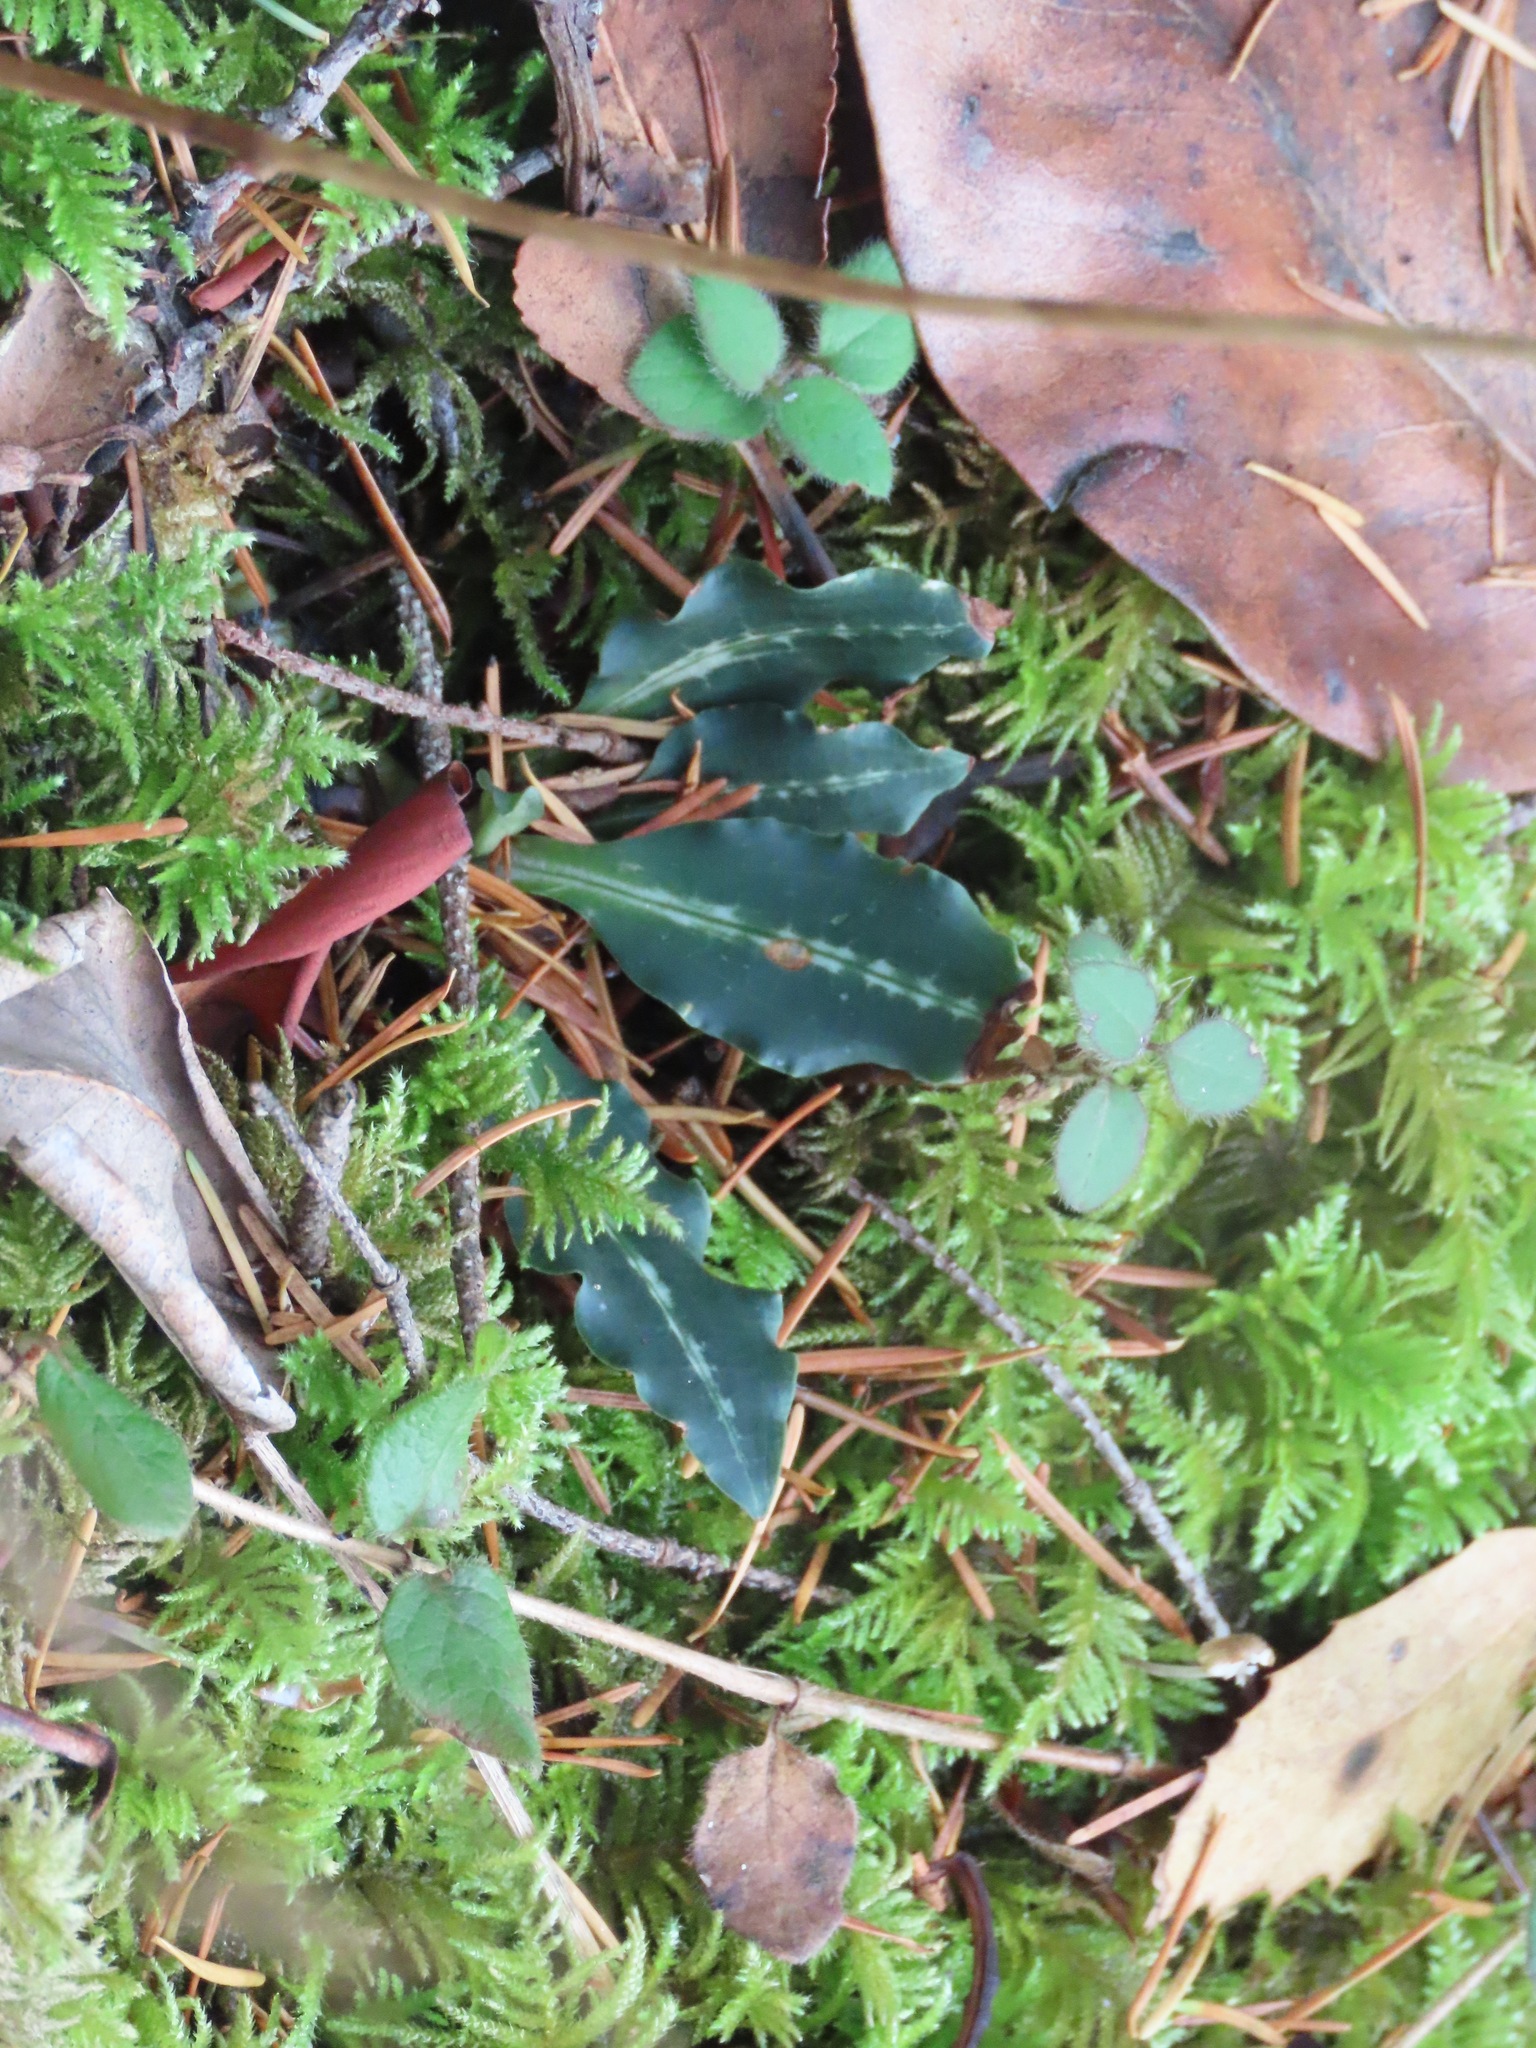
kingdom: Plantae
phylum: Tracheophyta
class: Liliopsida
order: Asparagales
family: Orchidaceae
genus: Goodyera
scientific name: Goodyera oblongifolia
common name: Giant rattlesnake-plantain
